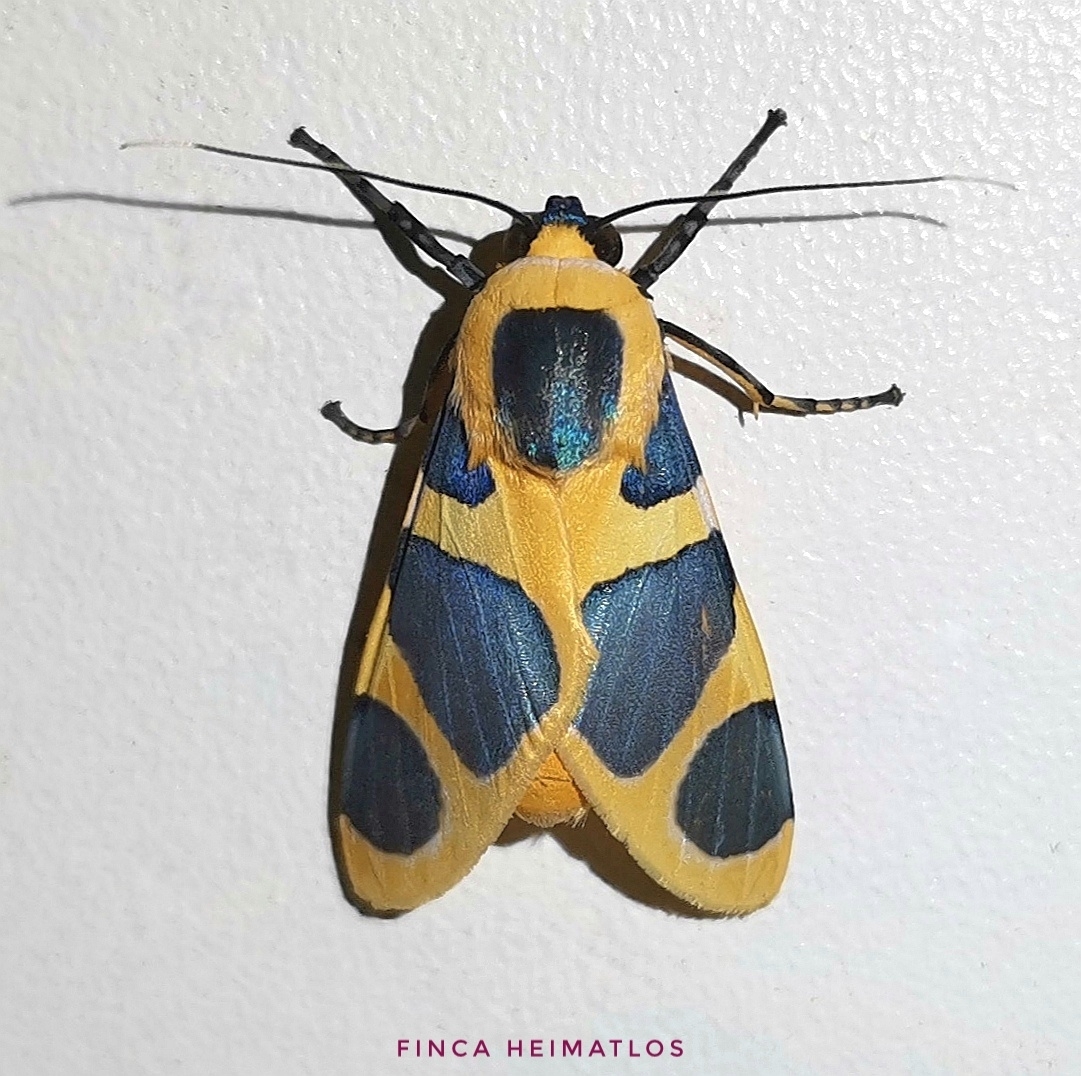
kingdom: Animalia
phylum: Arthropoda
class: Insecta
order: Lepidoptera
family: Erebidae
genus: Emurena
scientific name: Emurena lurida
